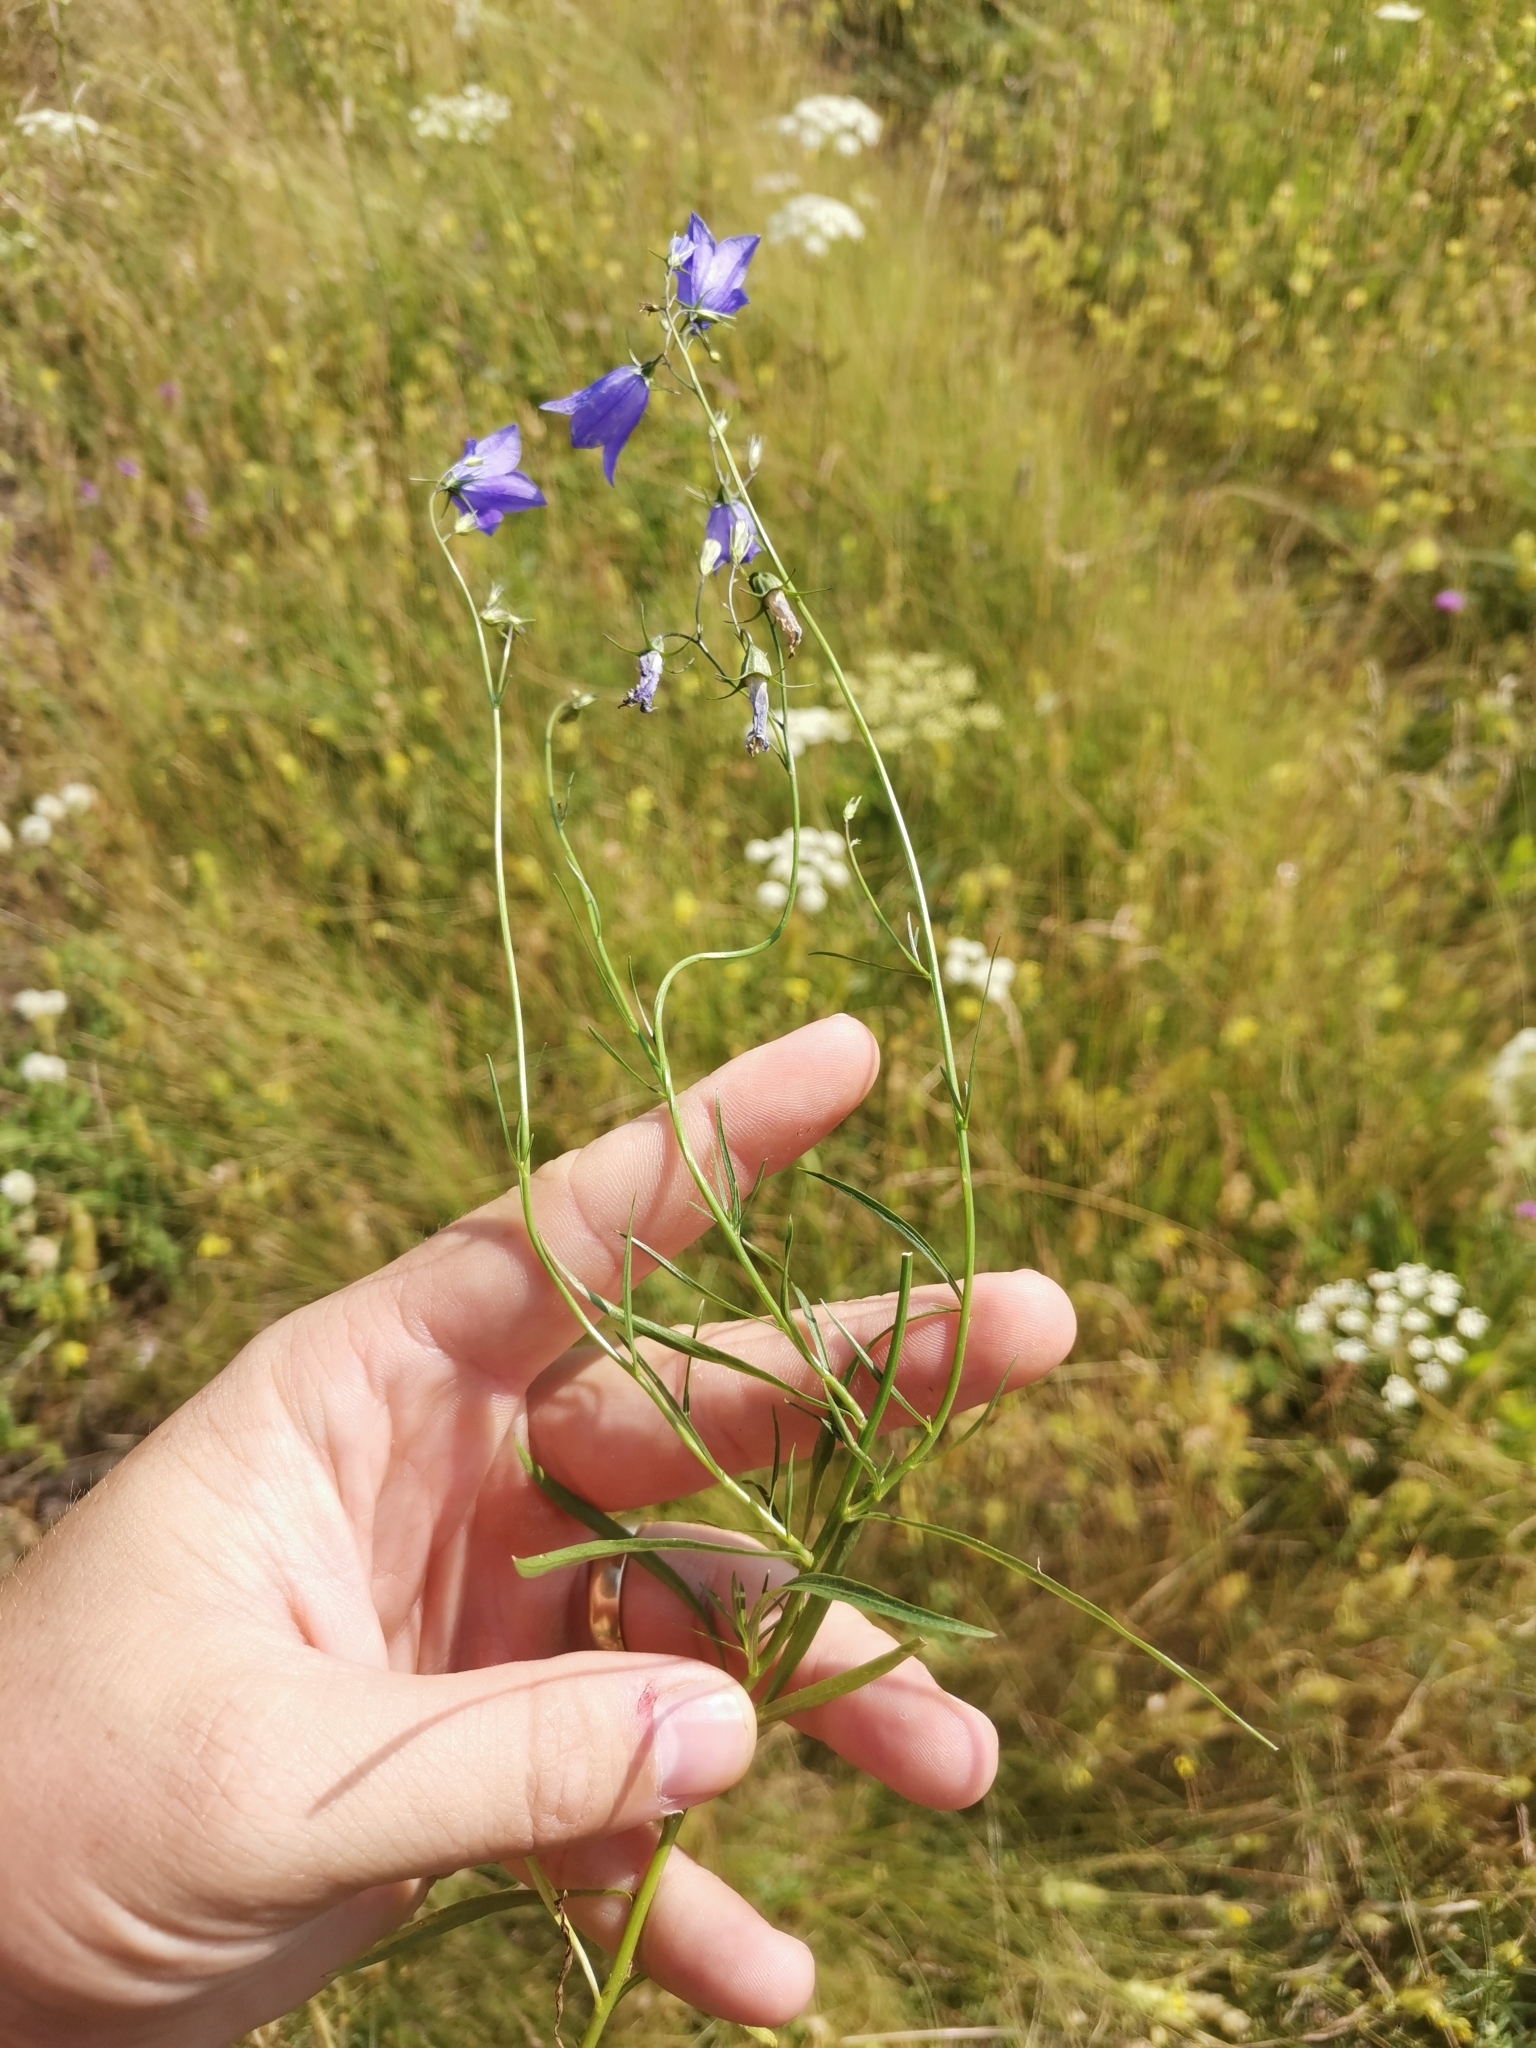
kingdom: Plantae
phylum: Tracheophyta
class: Magnoliopsida
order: Asterales
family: Campanulaceae
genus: Campanula
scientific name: Campanula rotundifolia
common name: Harebell
